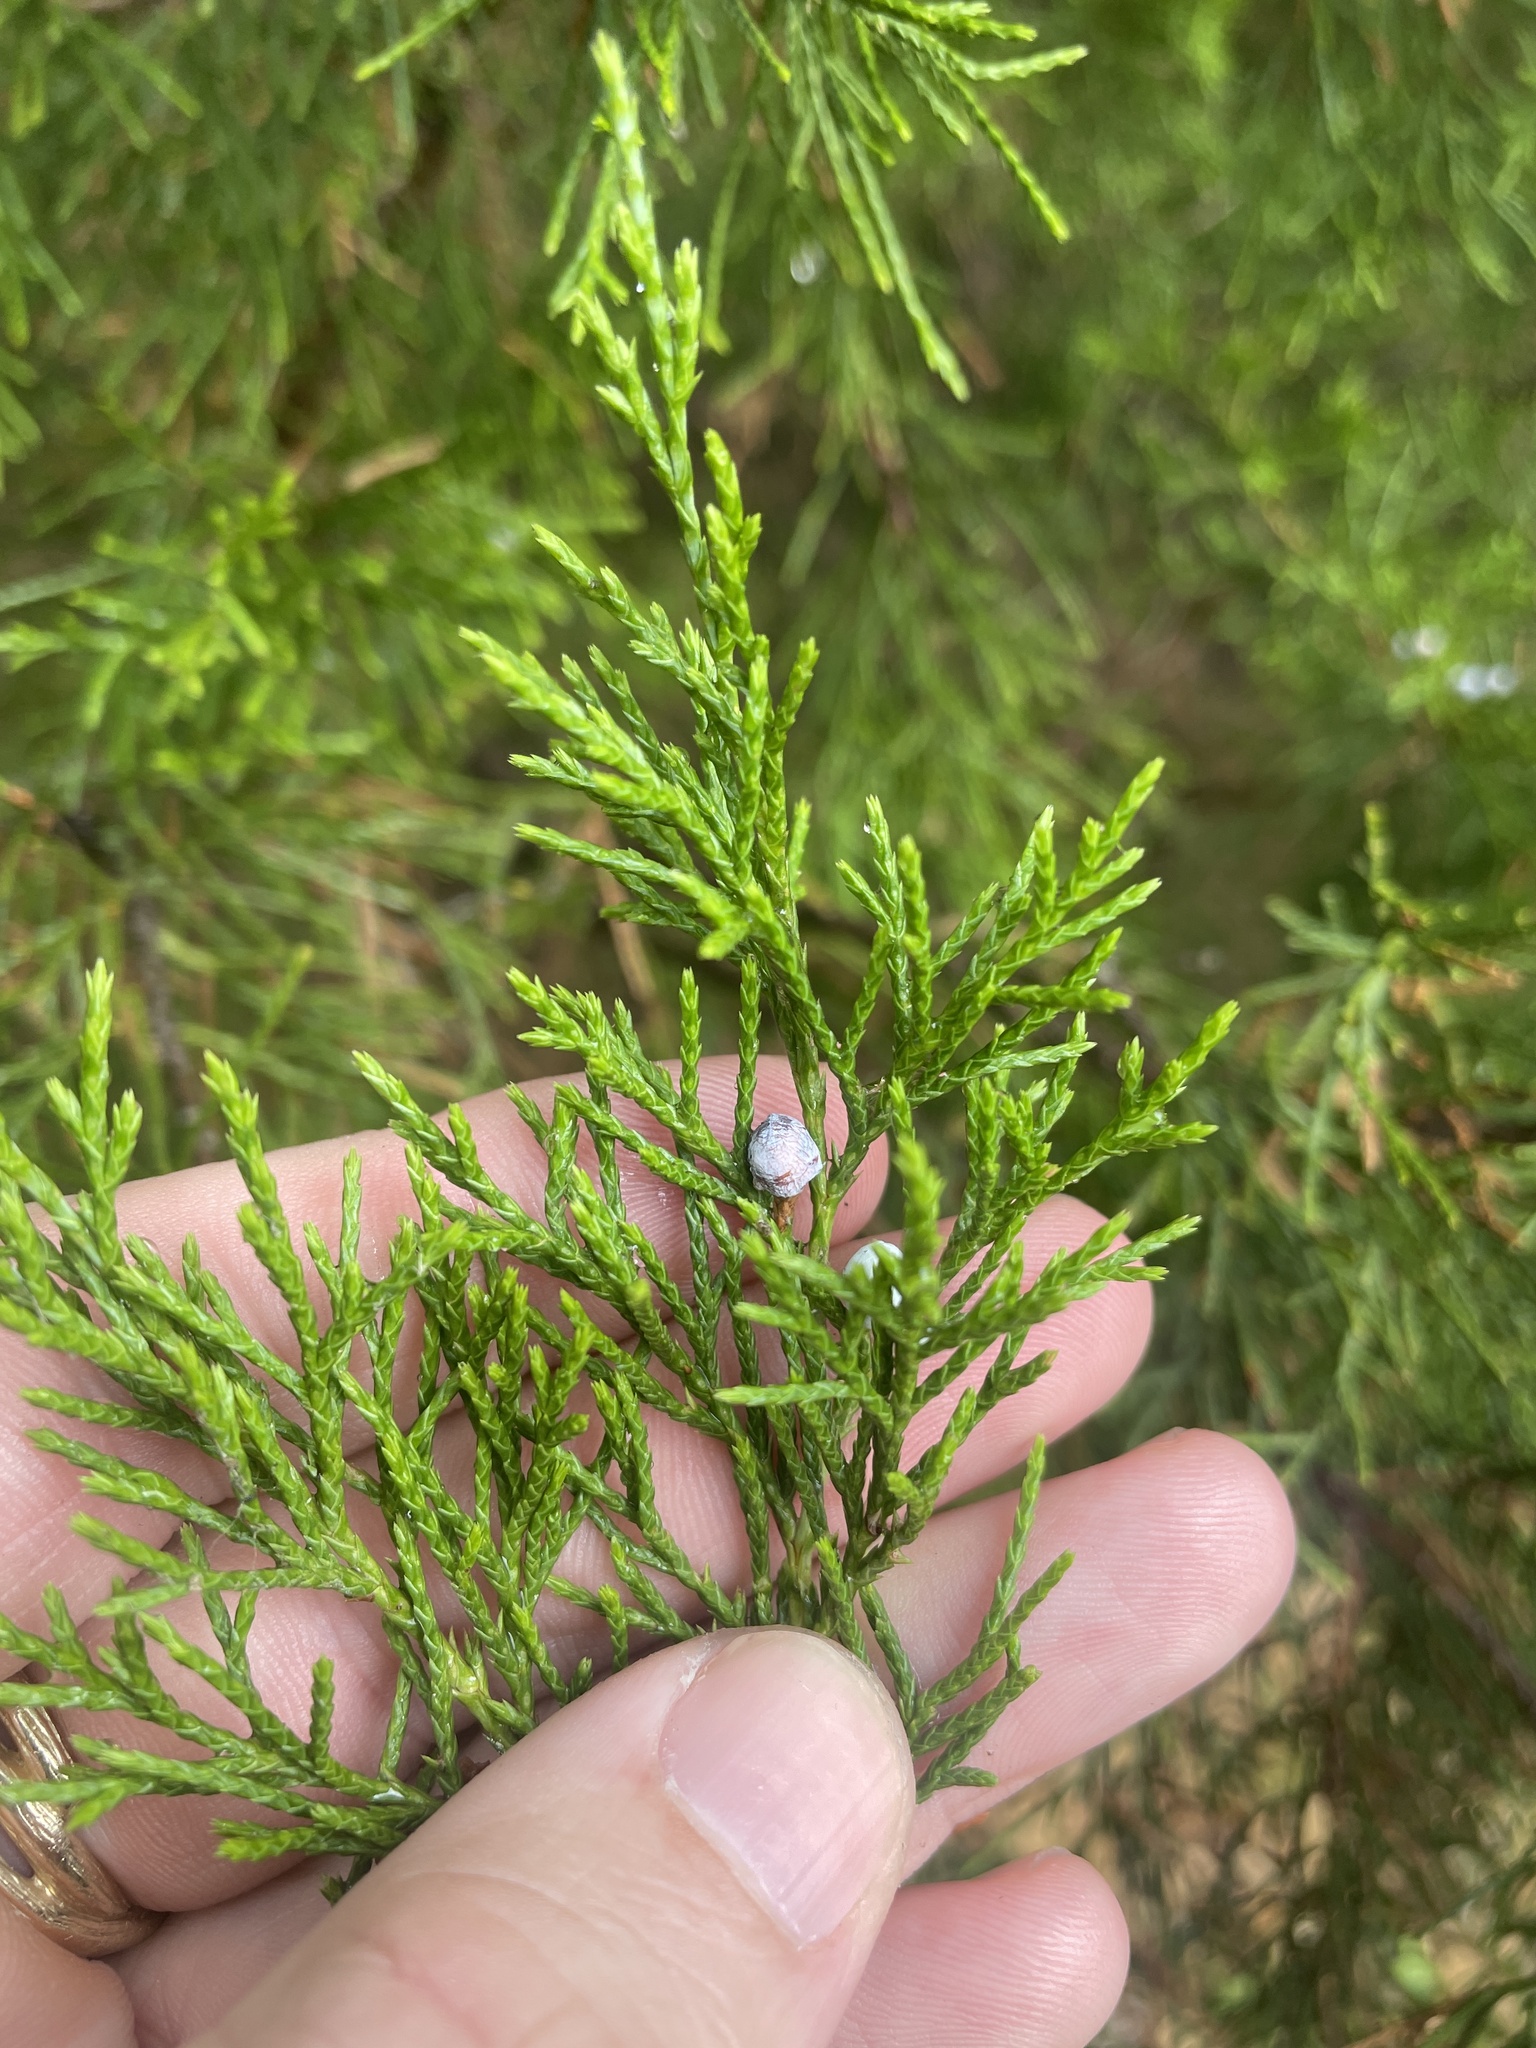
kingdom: Plantae
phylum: Tracheophyta
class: Pinopsida
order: Pinales
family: Cupressaceae
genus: Juniperus
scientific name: Juniperus virginiana
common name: Red juniper
